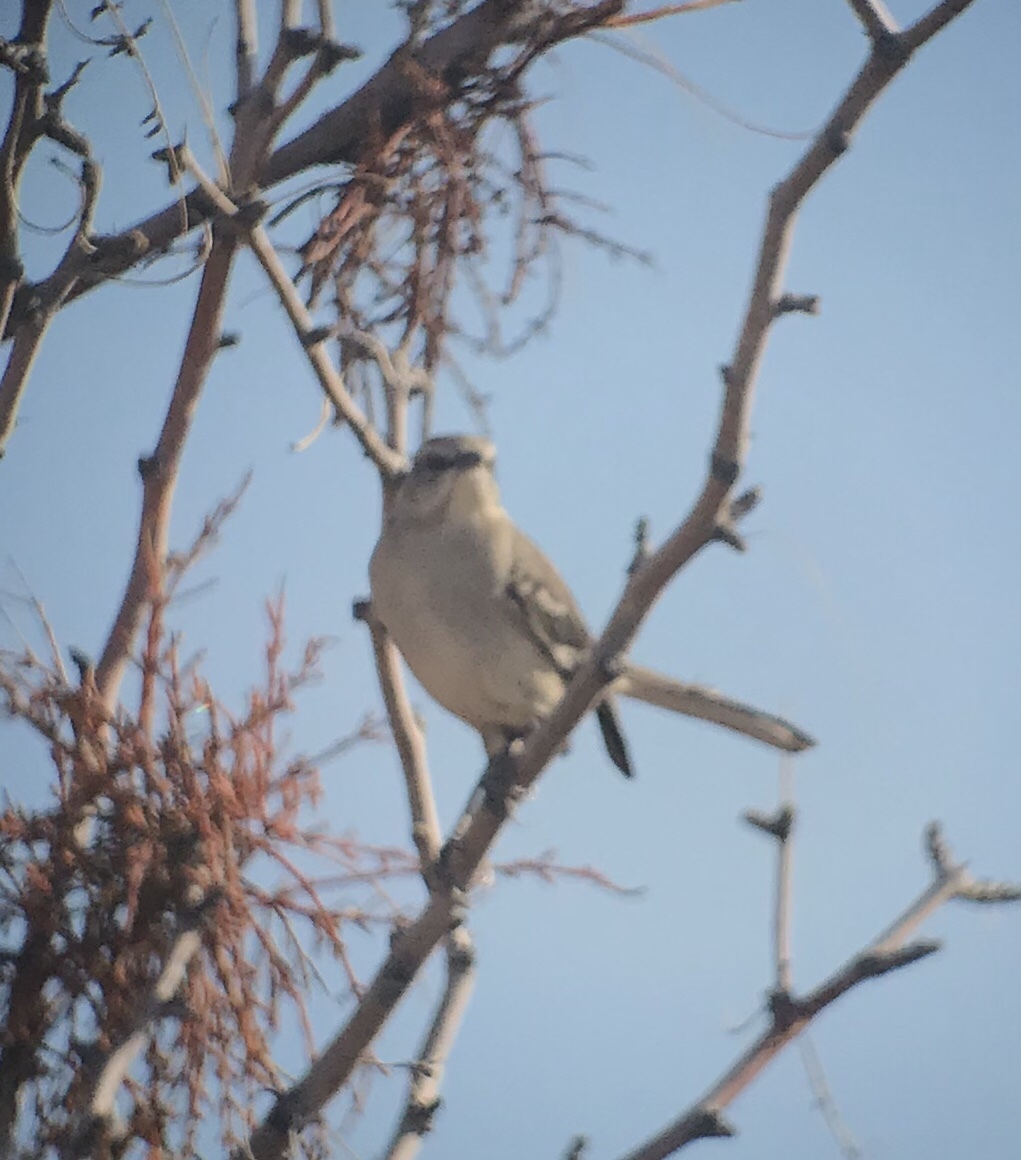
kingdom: Animalia
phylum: Chordata
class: Aves
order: Passeriformes
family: Mimidae
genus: Mimus
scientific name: Mimus polyglottos
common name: Northern mockingbird
